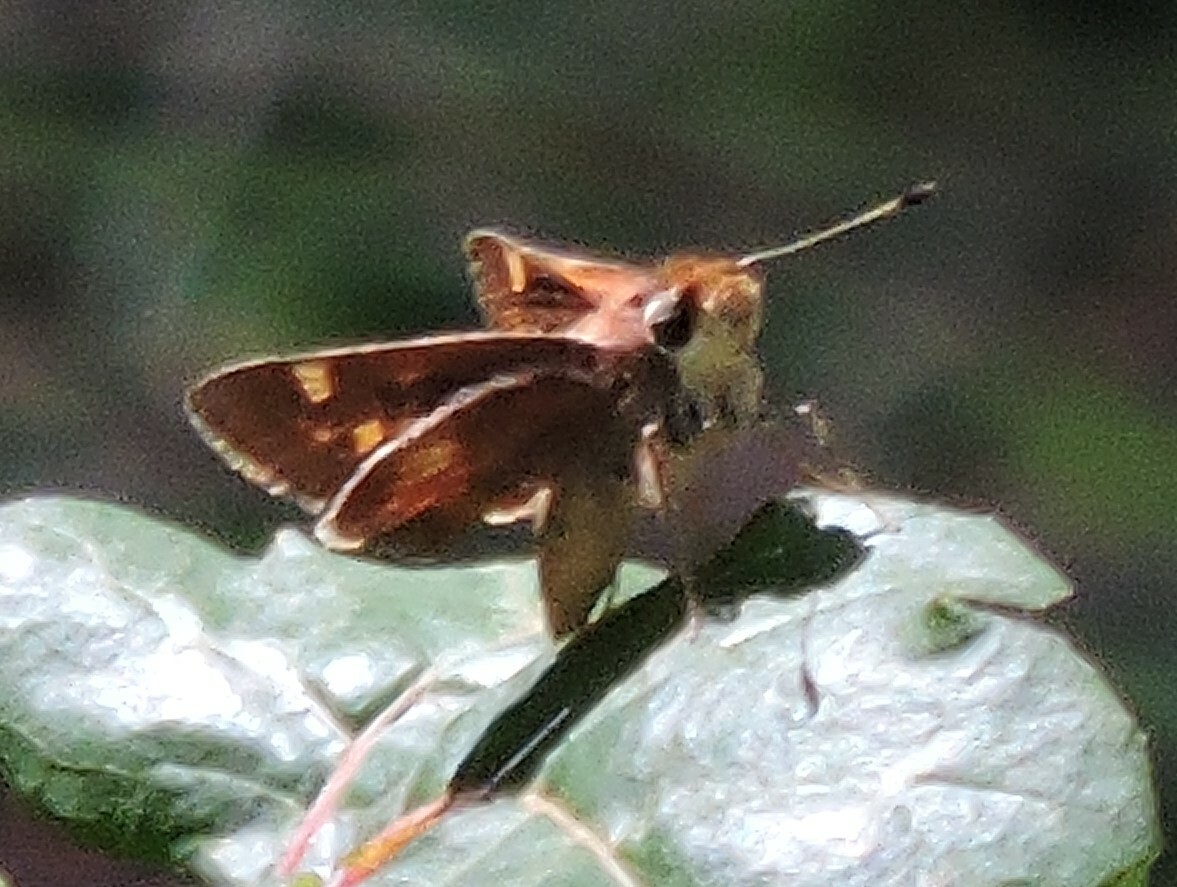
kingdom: Animalia
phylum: Arthropoda
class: Insecta
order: Lepidoptera
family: Hesperiidae
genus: Ochlodes
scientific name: Ochlodes sylvanoides
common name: Woodland skipper
